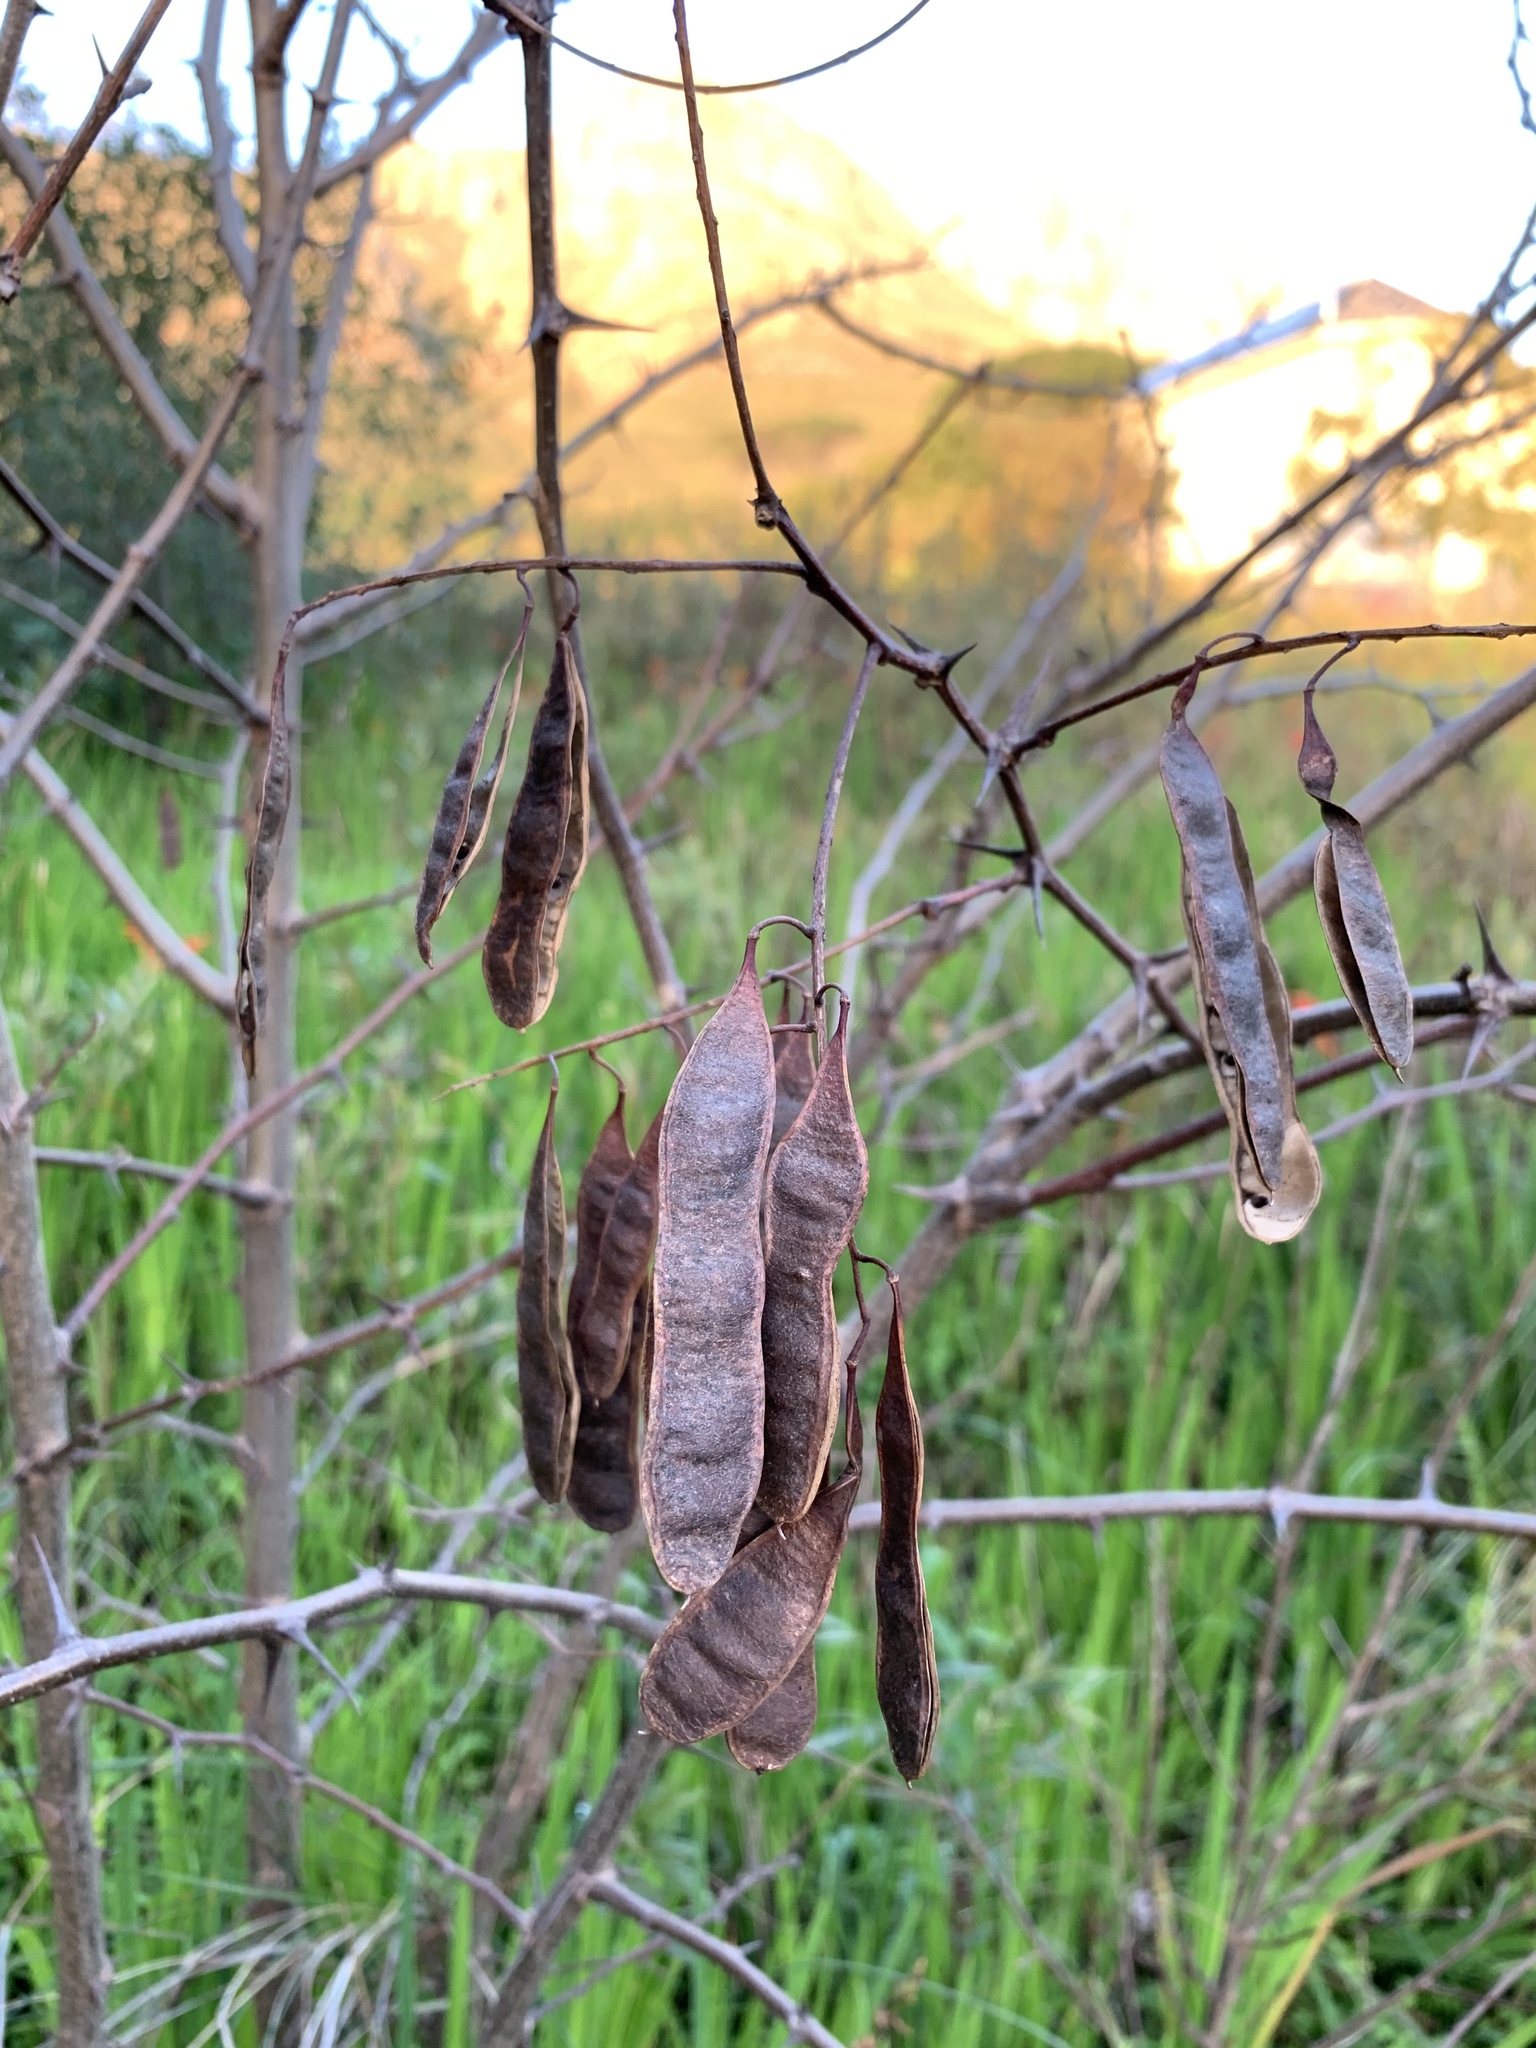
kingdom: Plantae
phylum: Tracheophyta
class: Magnoliopsida
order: Fabales
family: Fabaceae
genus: Robinia
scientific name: Robinia pseudoacacia
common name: Black locust
